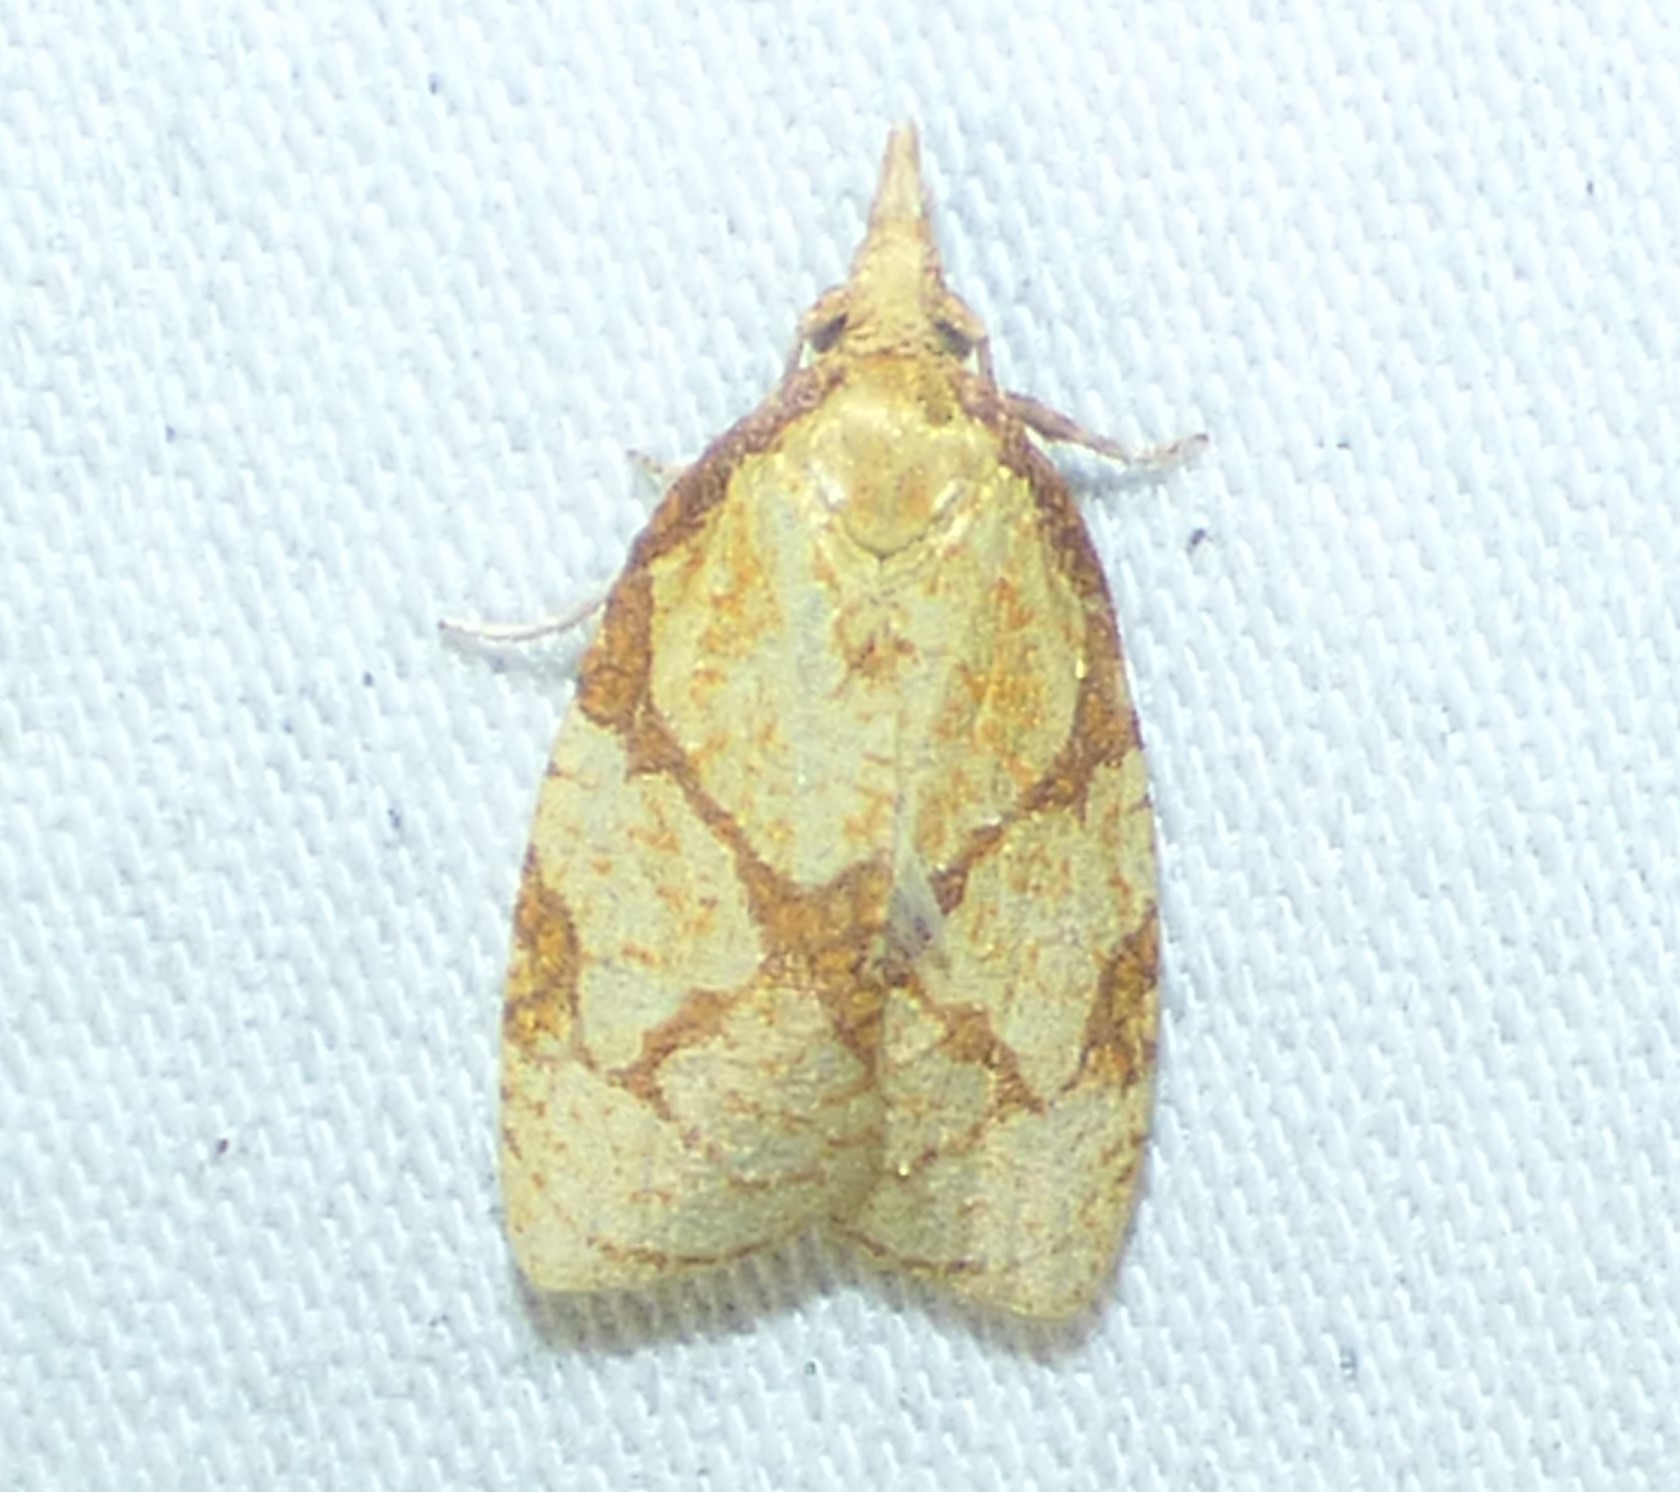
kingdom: Animalia
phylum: Arthropoda
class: Insecta
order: Lepidoptera
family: Tortricidae
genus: Cenopis
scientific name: Cenopis reticulatana
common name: Reticulated fruitworm moth
